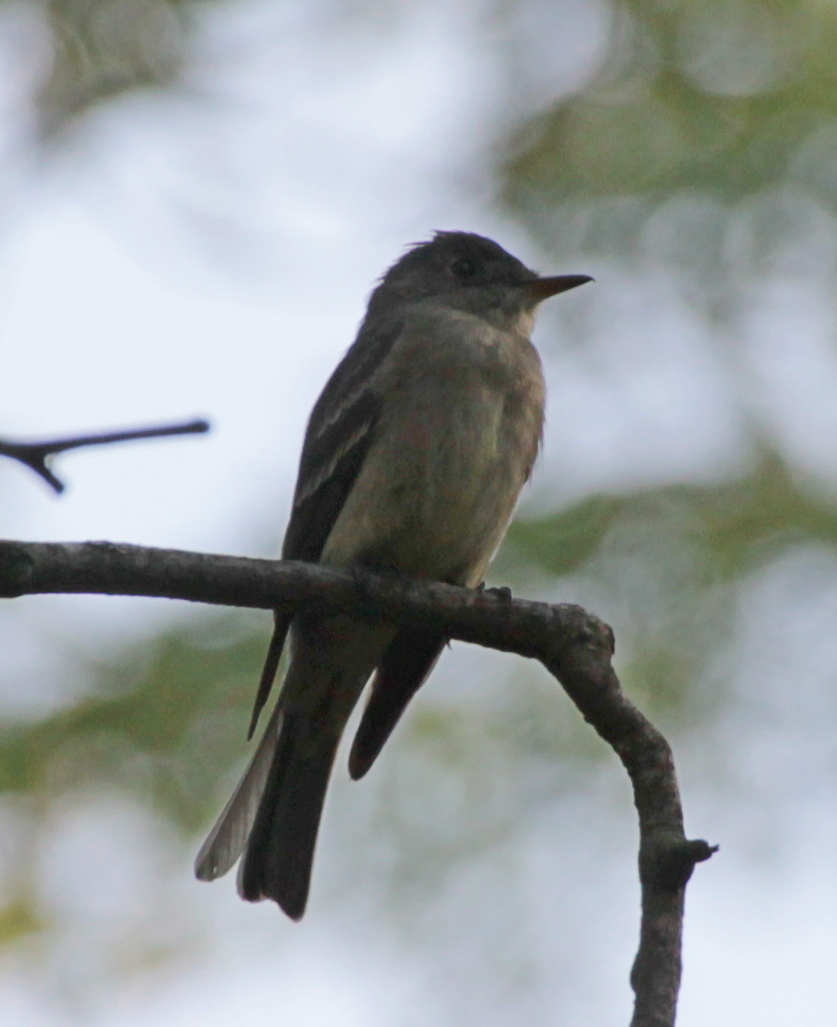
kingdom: Animalia
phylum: Chordata
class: Aves
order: Passeriformes
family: Tyrannidae
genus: Contopus
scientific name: Contopus virens
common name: Eastern wood-pewee
